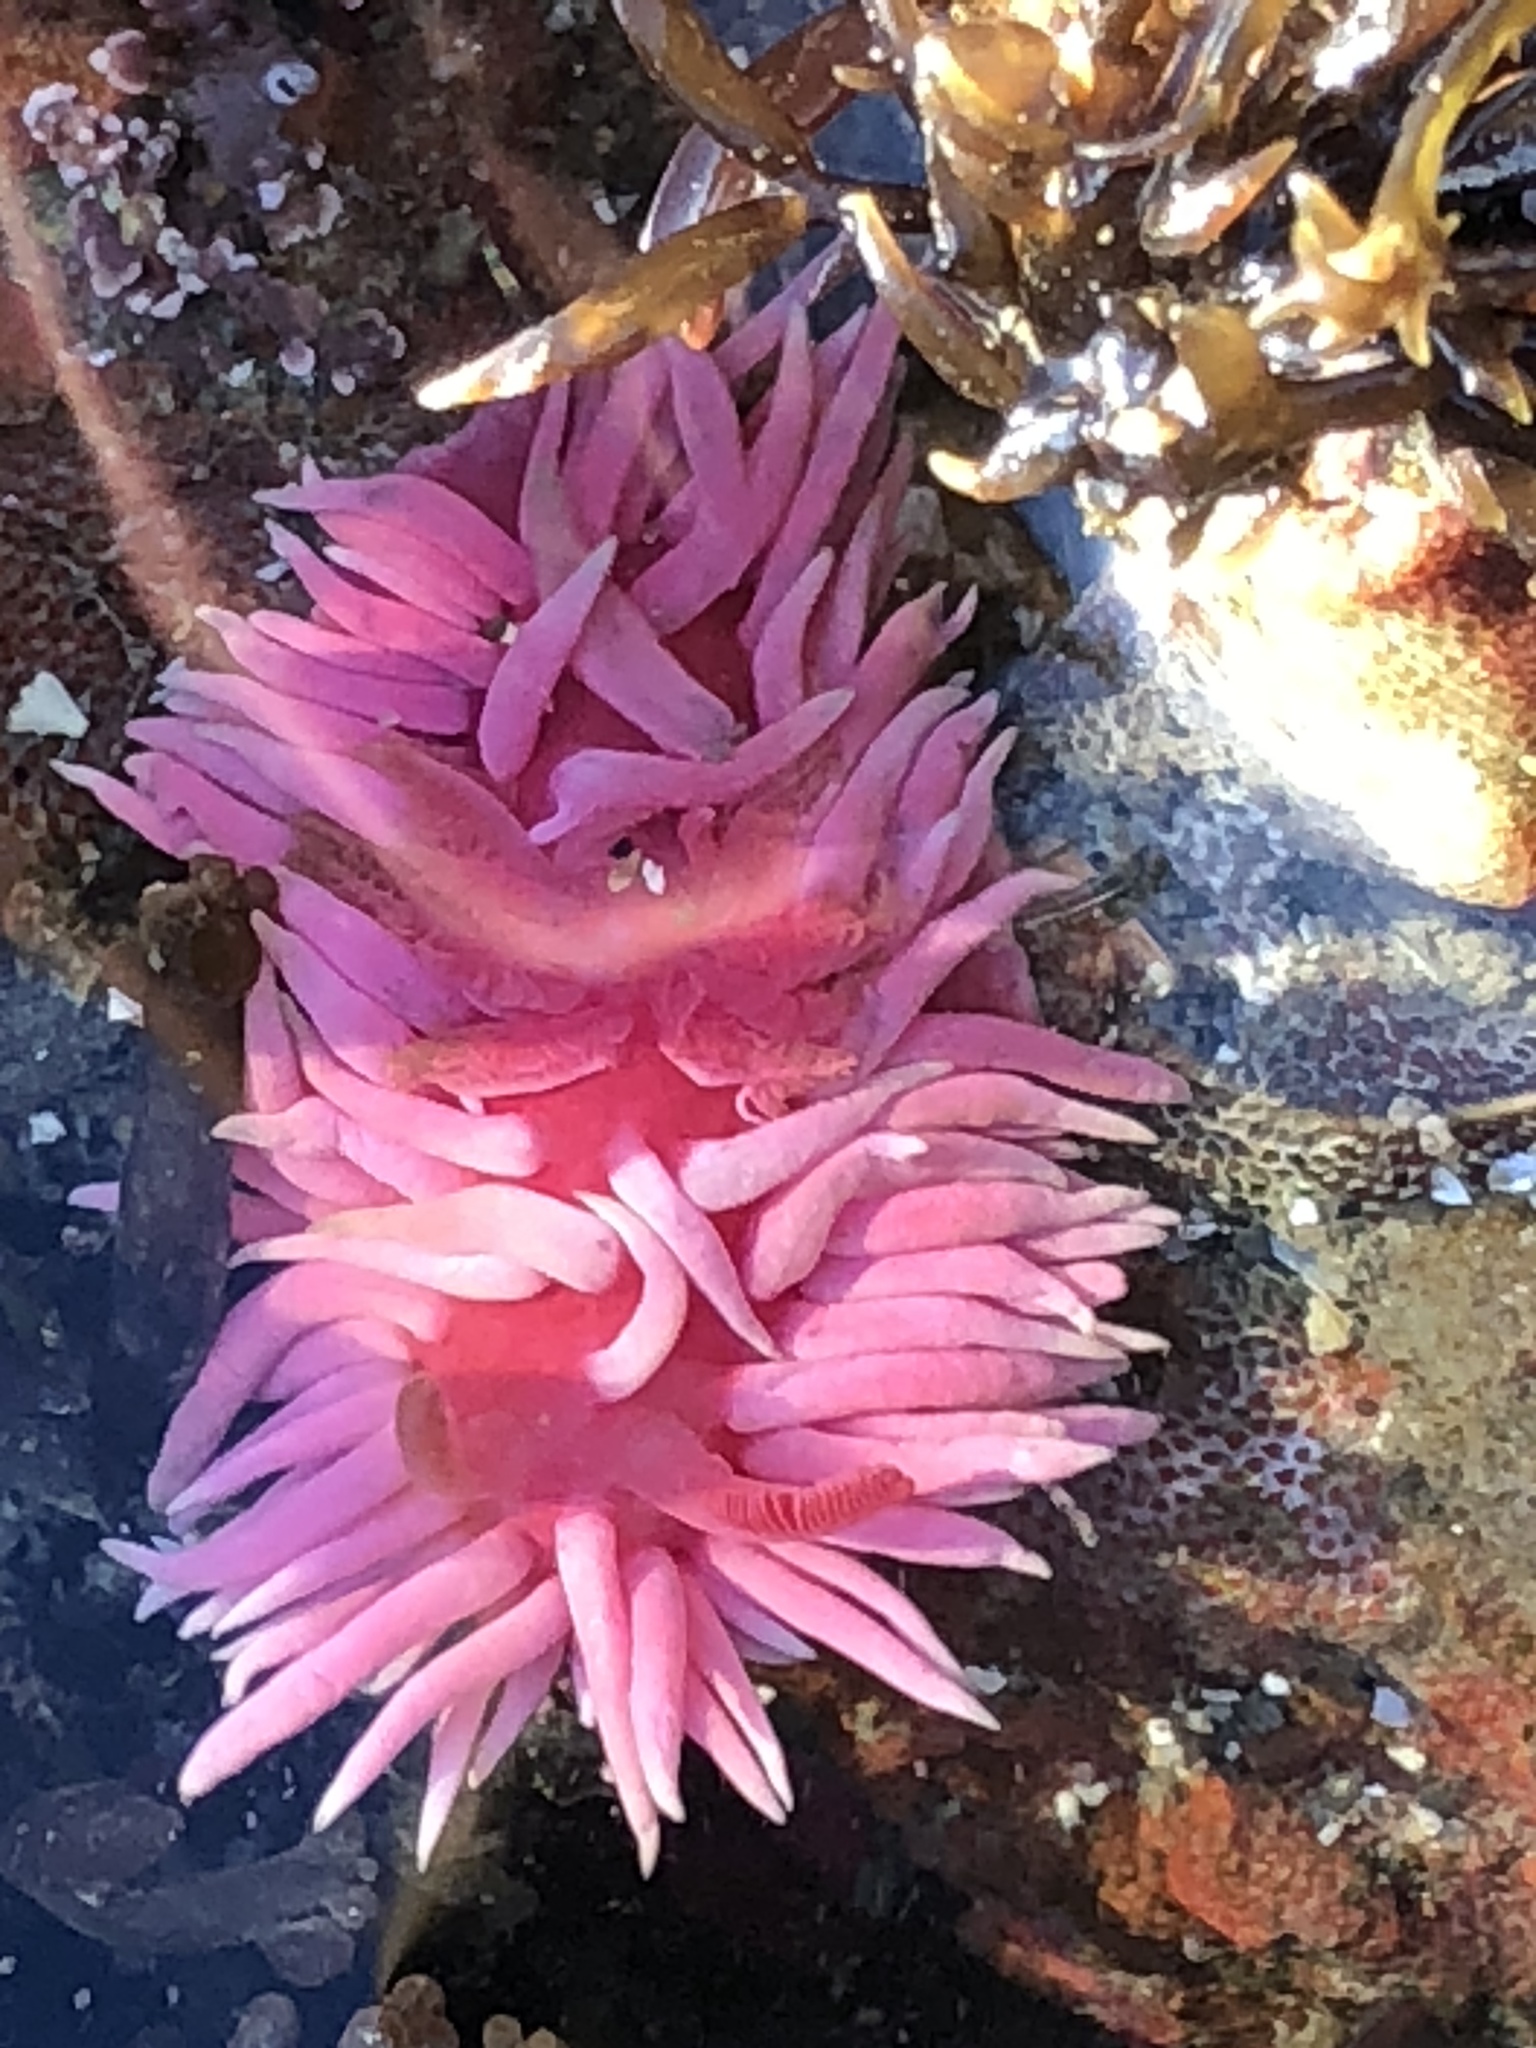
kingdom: Animalia
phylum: Mollusca
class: Gastropoda
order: Nudibranchia
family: Goniodorididae
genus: Okenia
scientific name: Okenia
